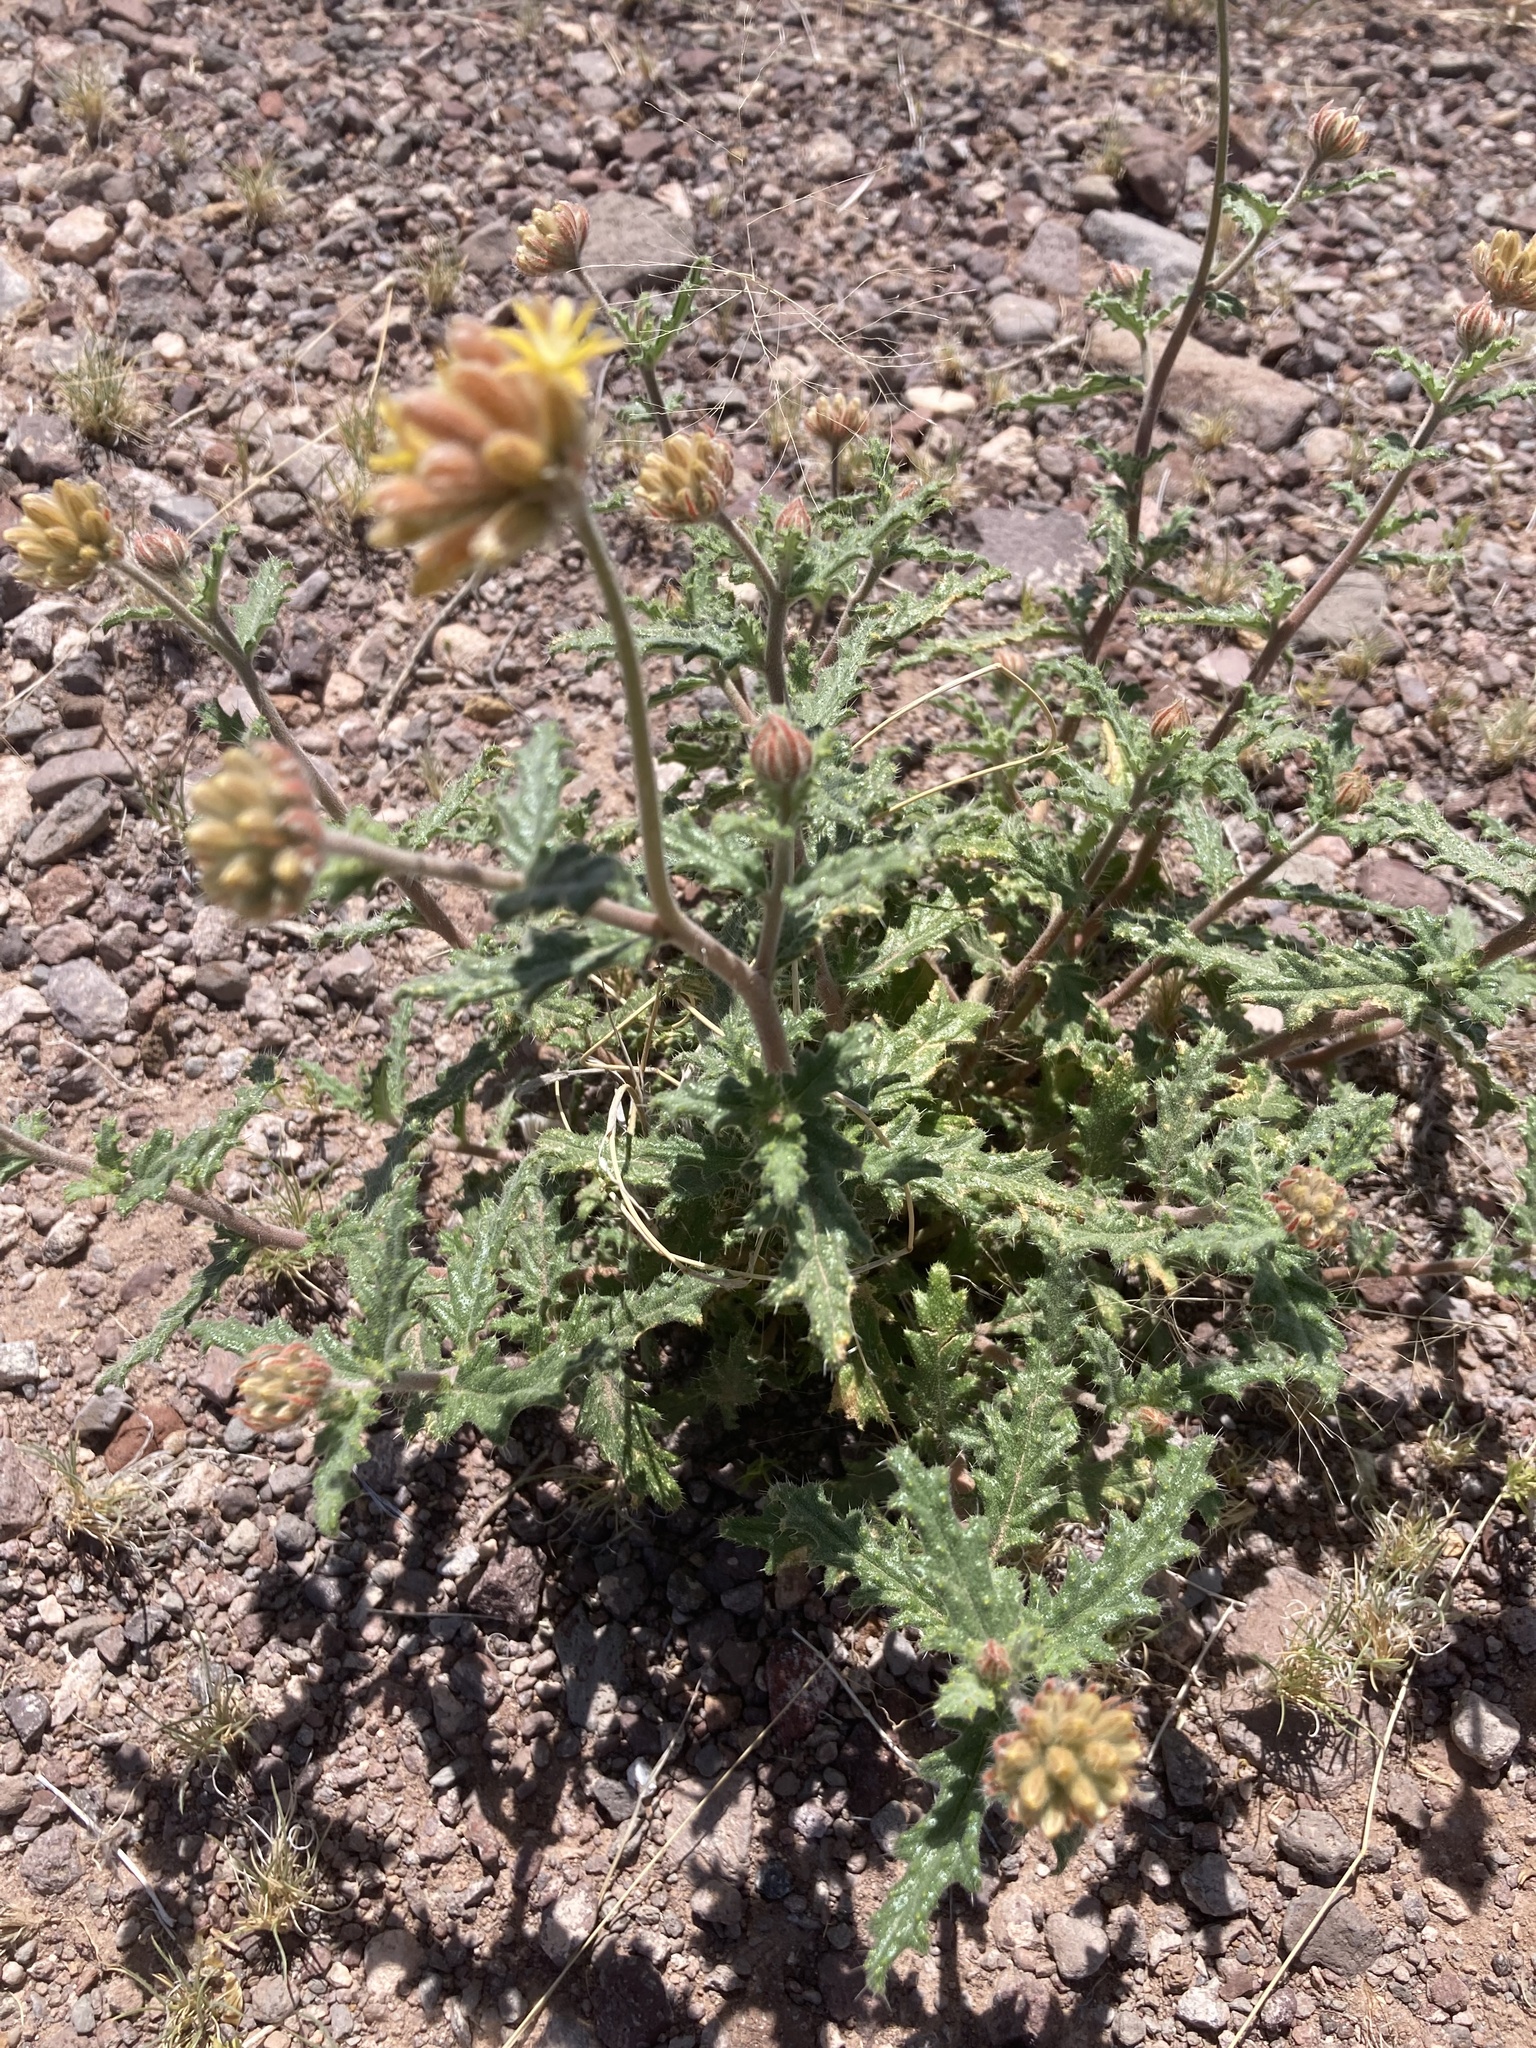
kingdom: Plantae
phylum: Tracheophyta
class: Magnoliopsida
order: Cornales
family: Loasaceae
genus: Cevallia
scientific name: Cevallia sinuata
